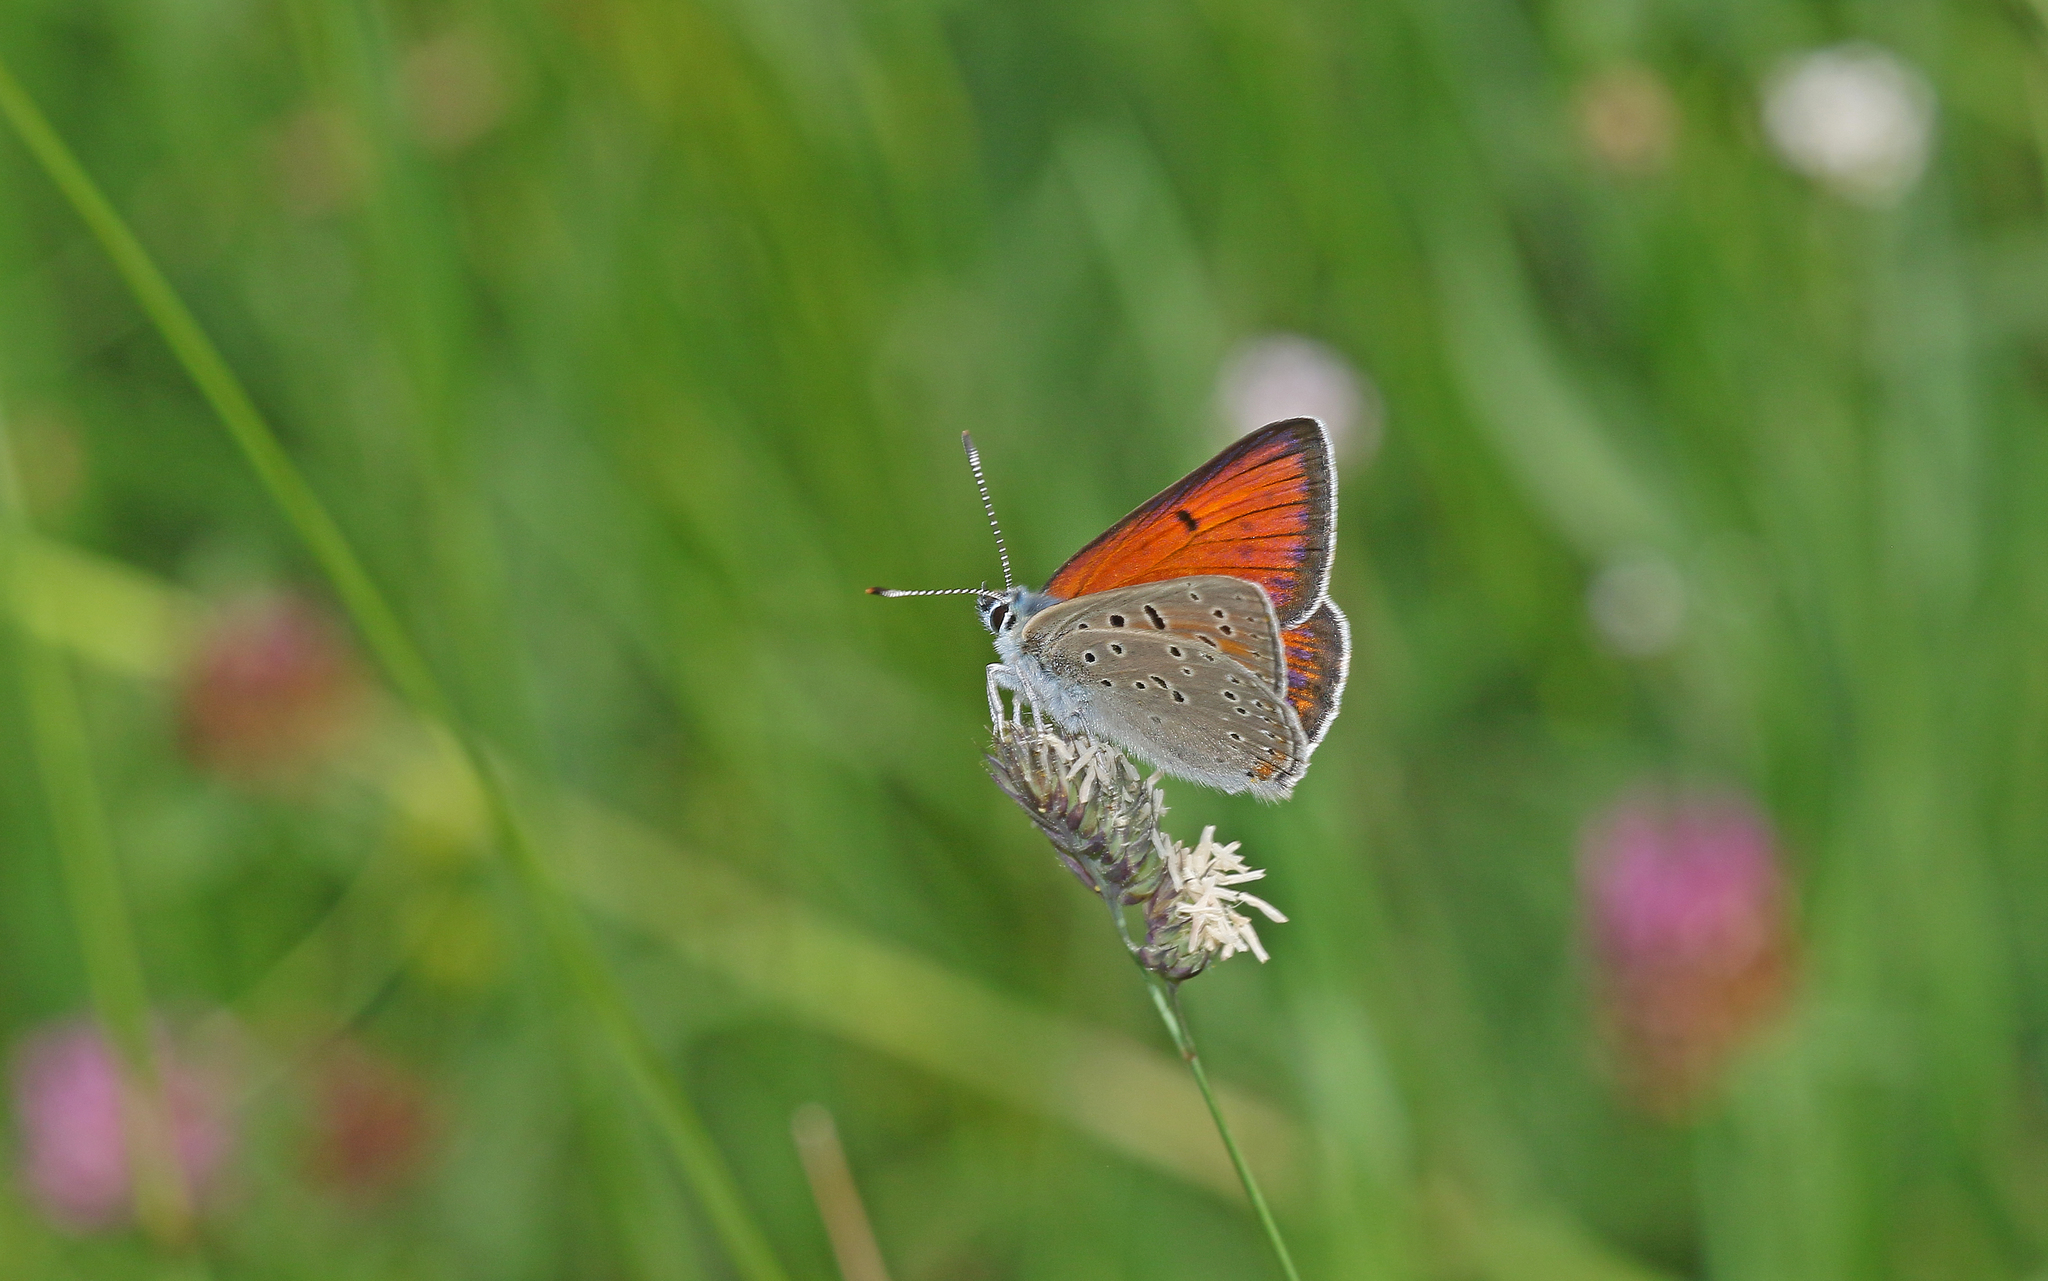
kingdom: Animalia
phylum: Arthropoda
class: Insecta
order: Lepidoptera
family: Lycaenidae
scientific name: Lycaenidae
